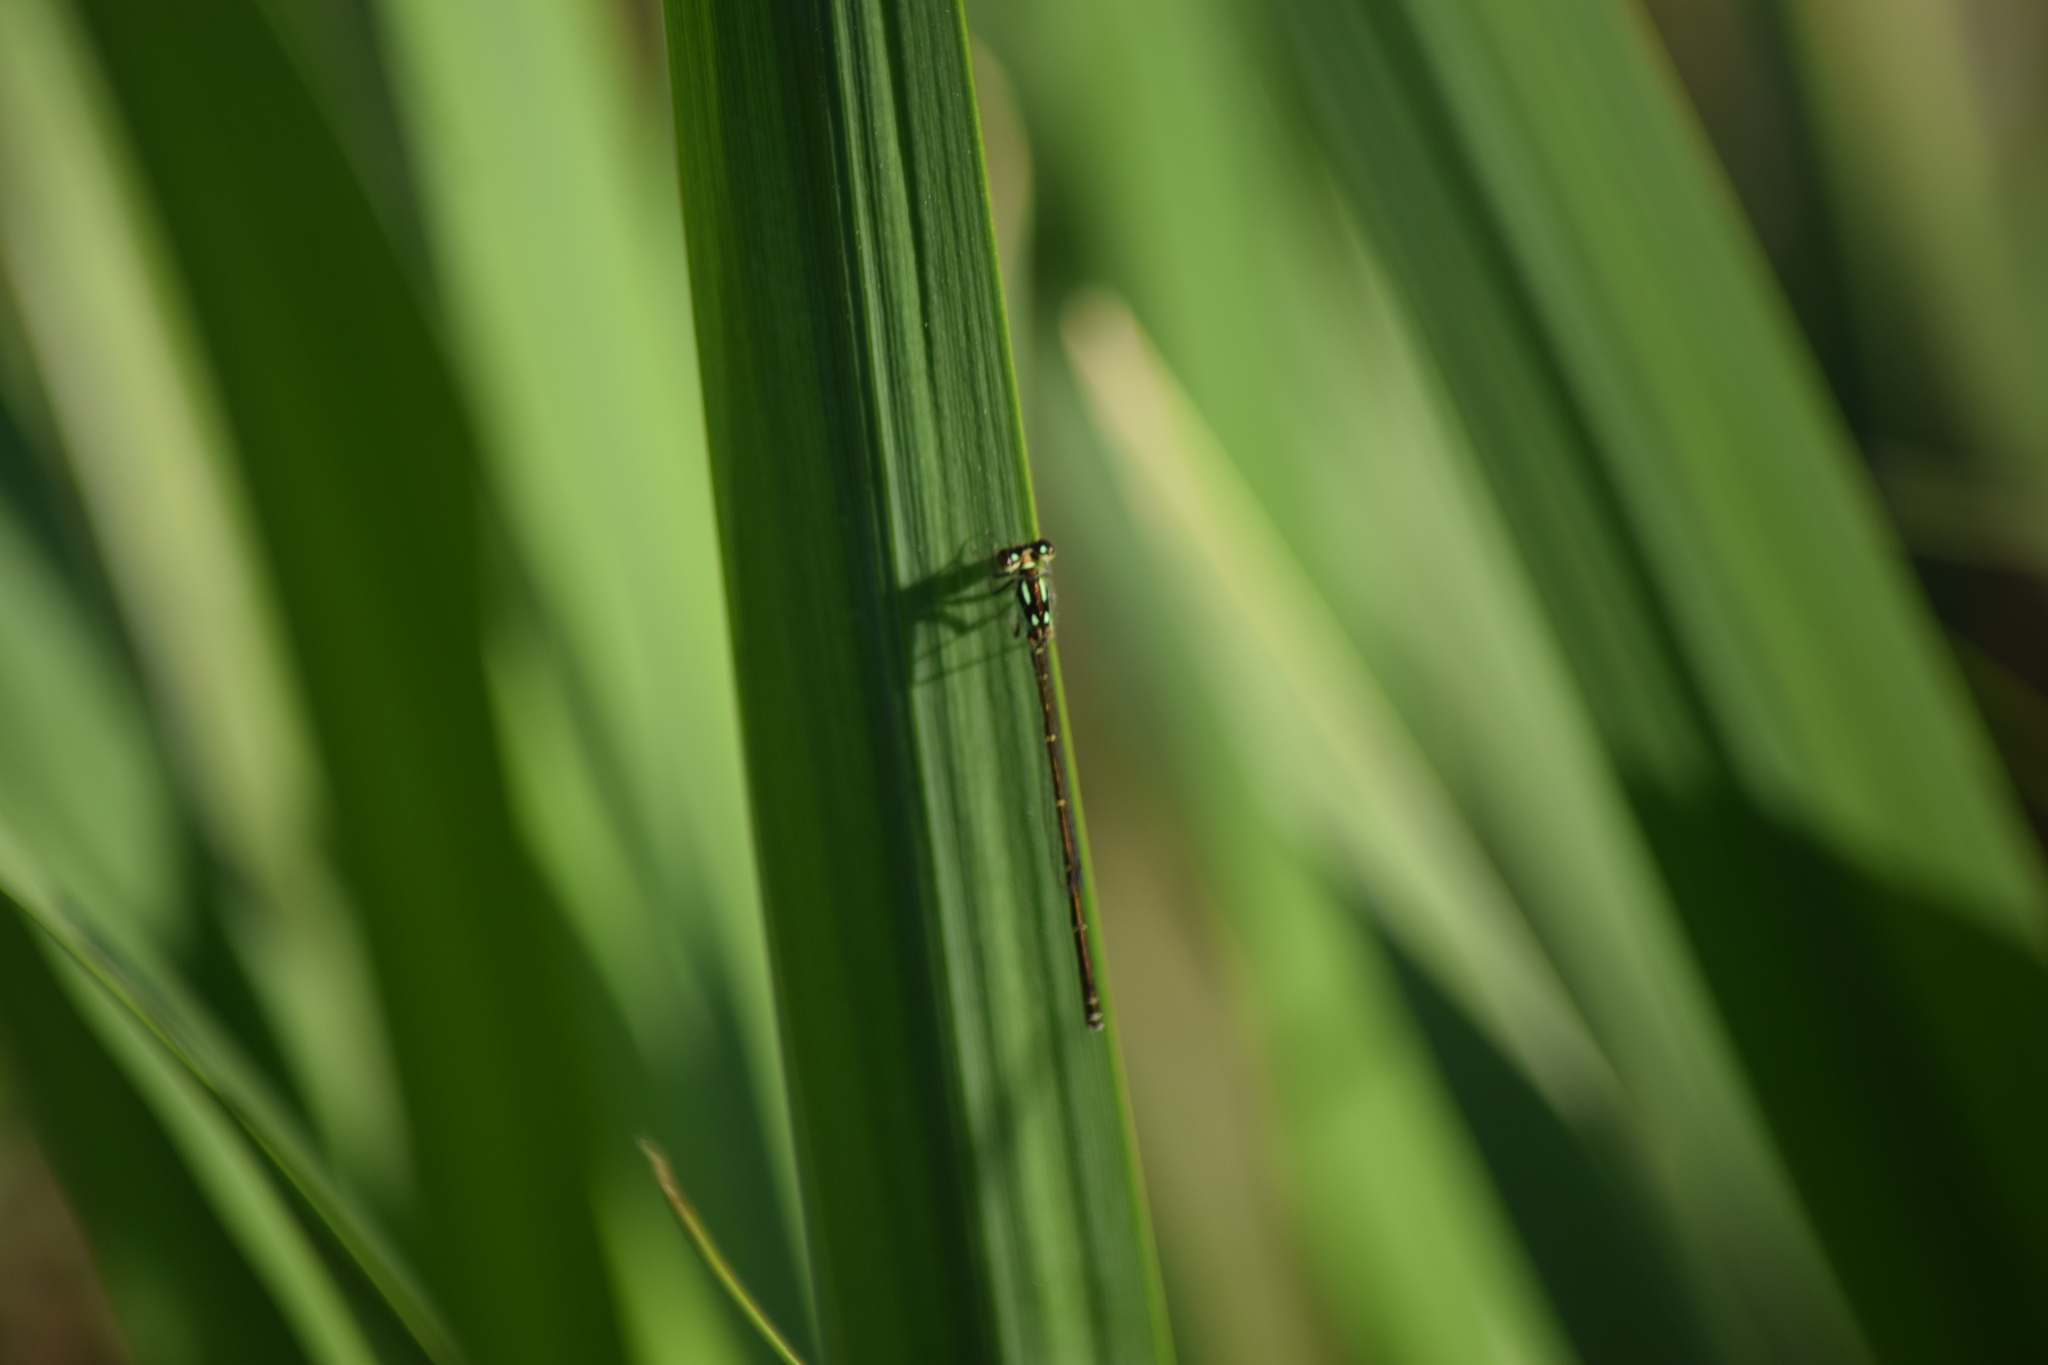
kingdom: Animalia
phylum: Arthropoda
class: Insecta
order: Odonata
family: Coenagrionidae
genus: Ischnura
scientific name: Ischnura posita
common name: Fragile forktail
